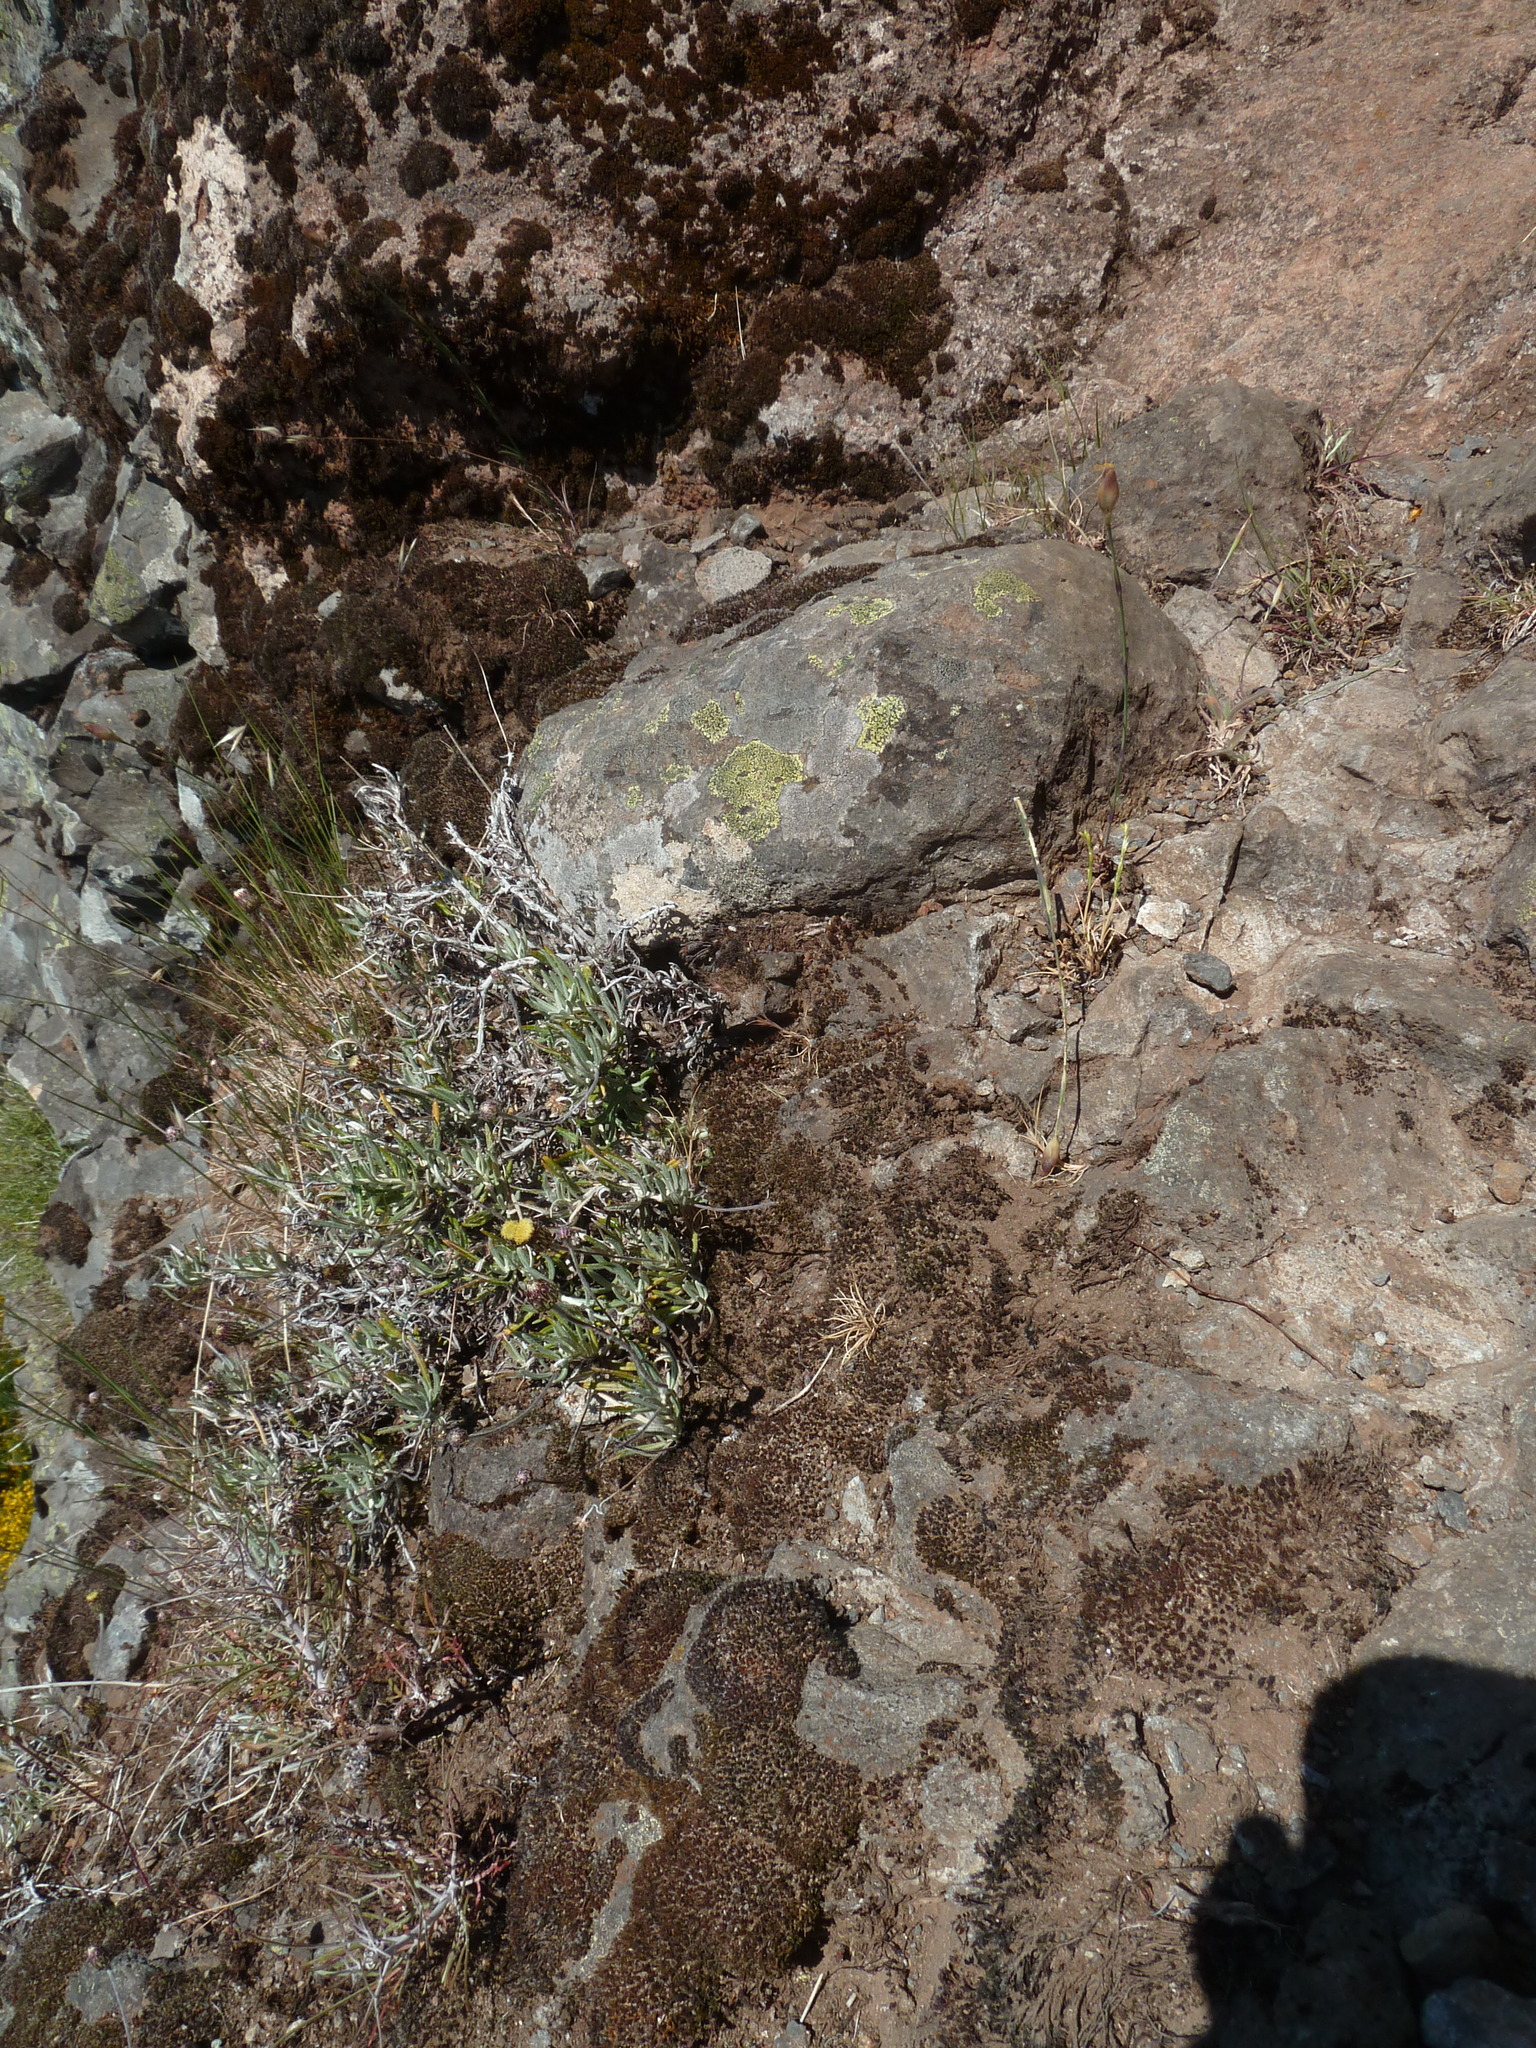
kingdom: Plantae
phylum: Tracheophyta
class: Magnoliopsida
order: Asterales
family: Asteraceae
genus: Phagnalon
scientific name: Phagnalon saxatile
